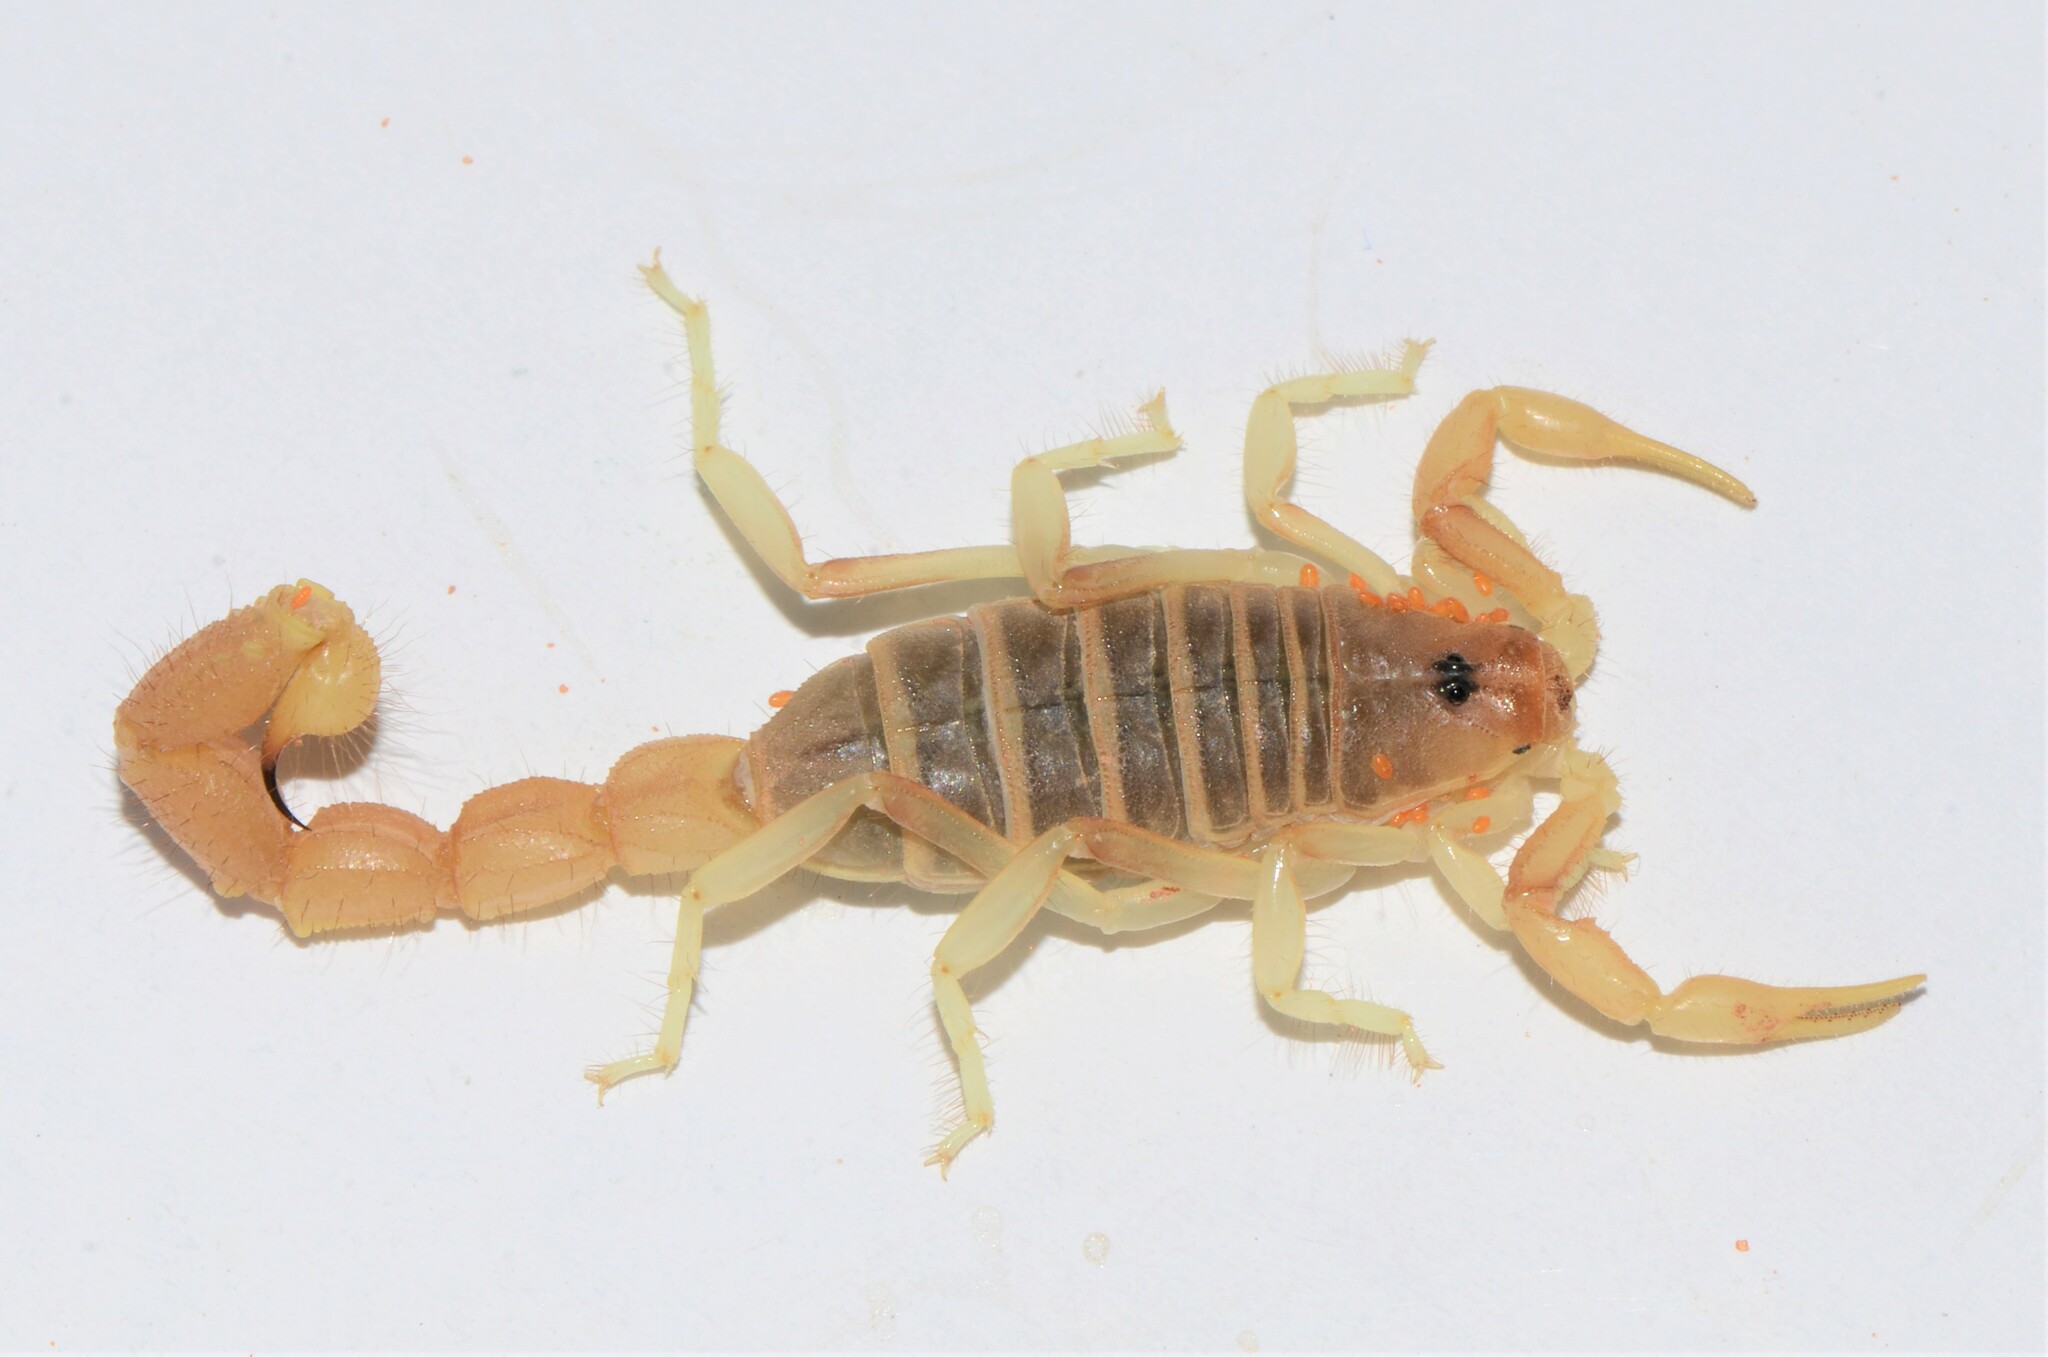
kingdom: Animalia
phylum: Arthropoda
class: Arachnida
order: Scorpiones
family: Buthidae
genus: Parabuthus
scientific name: Parabuthus brevimanus
